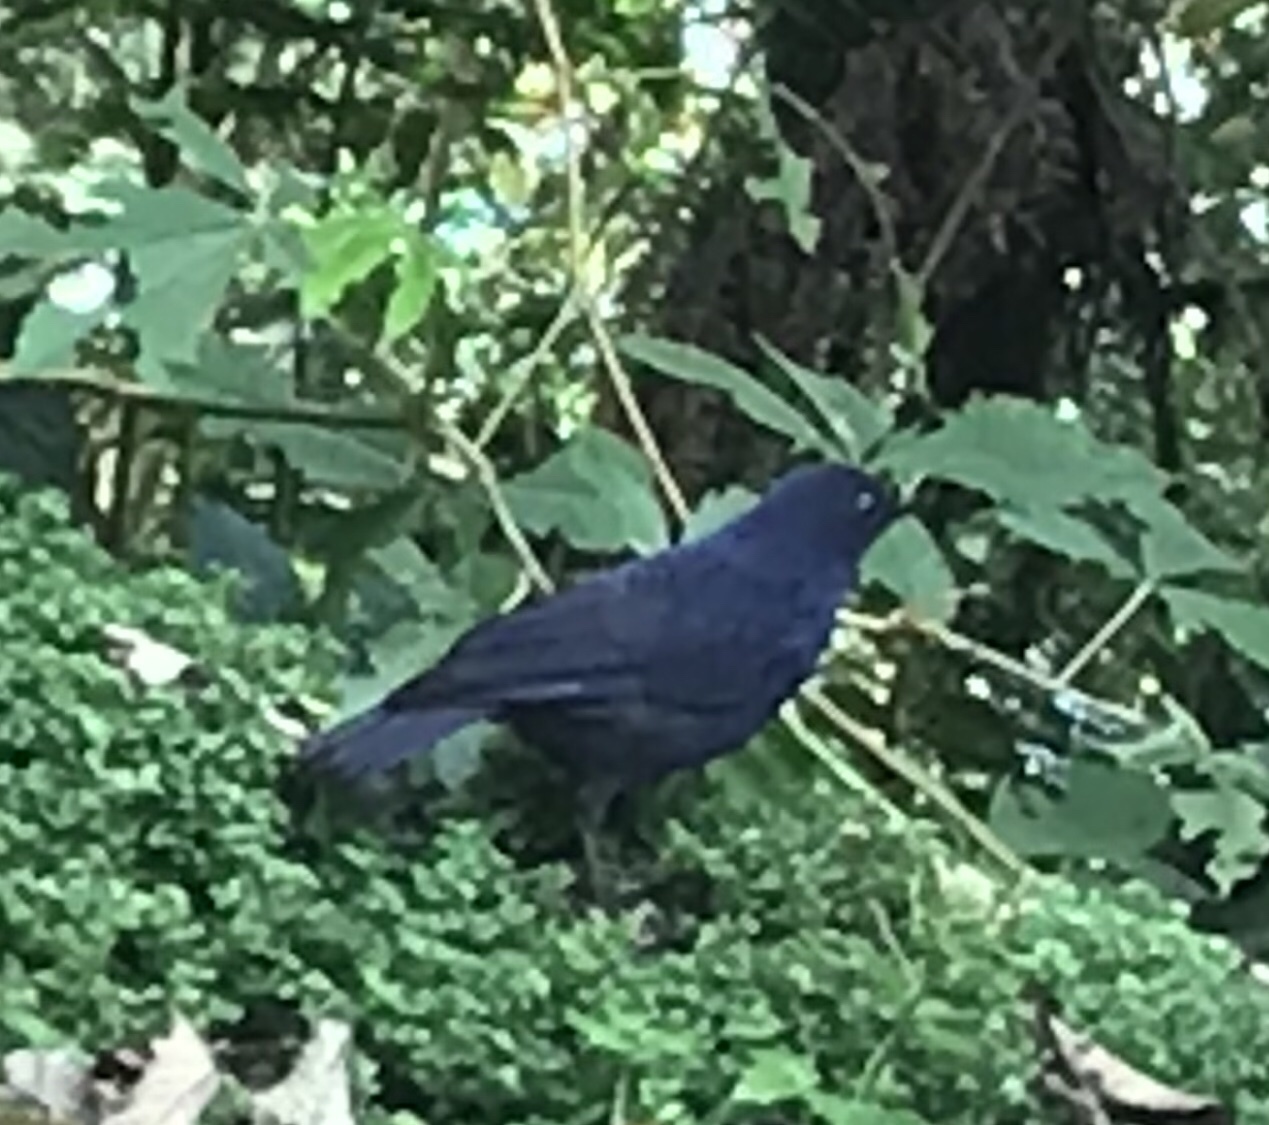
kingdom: Animalia
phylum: Chordata
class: Aves
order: Passeriformes
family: Muscicapidae
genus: Myophonus
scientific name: Myophonus glaucinus
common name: Javan whistling-thrush
